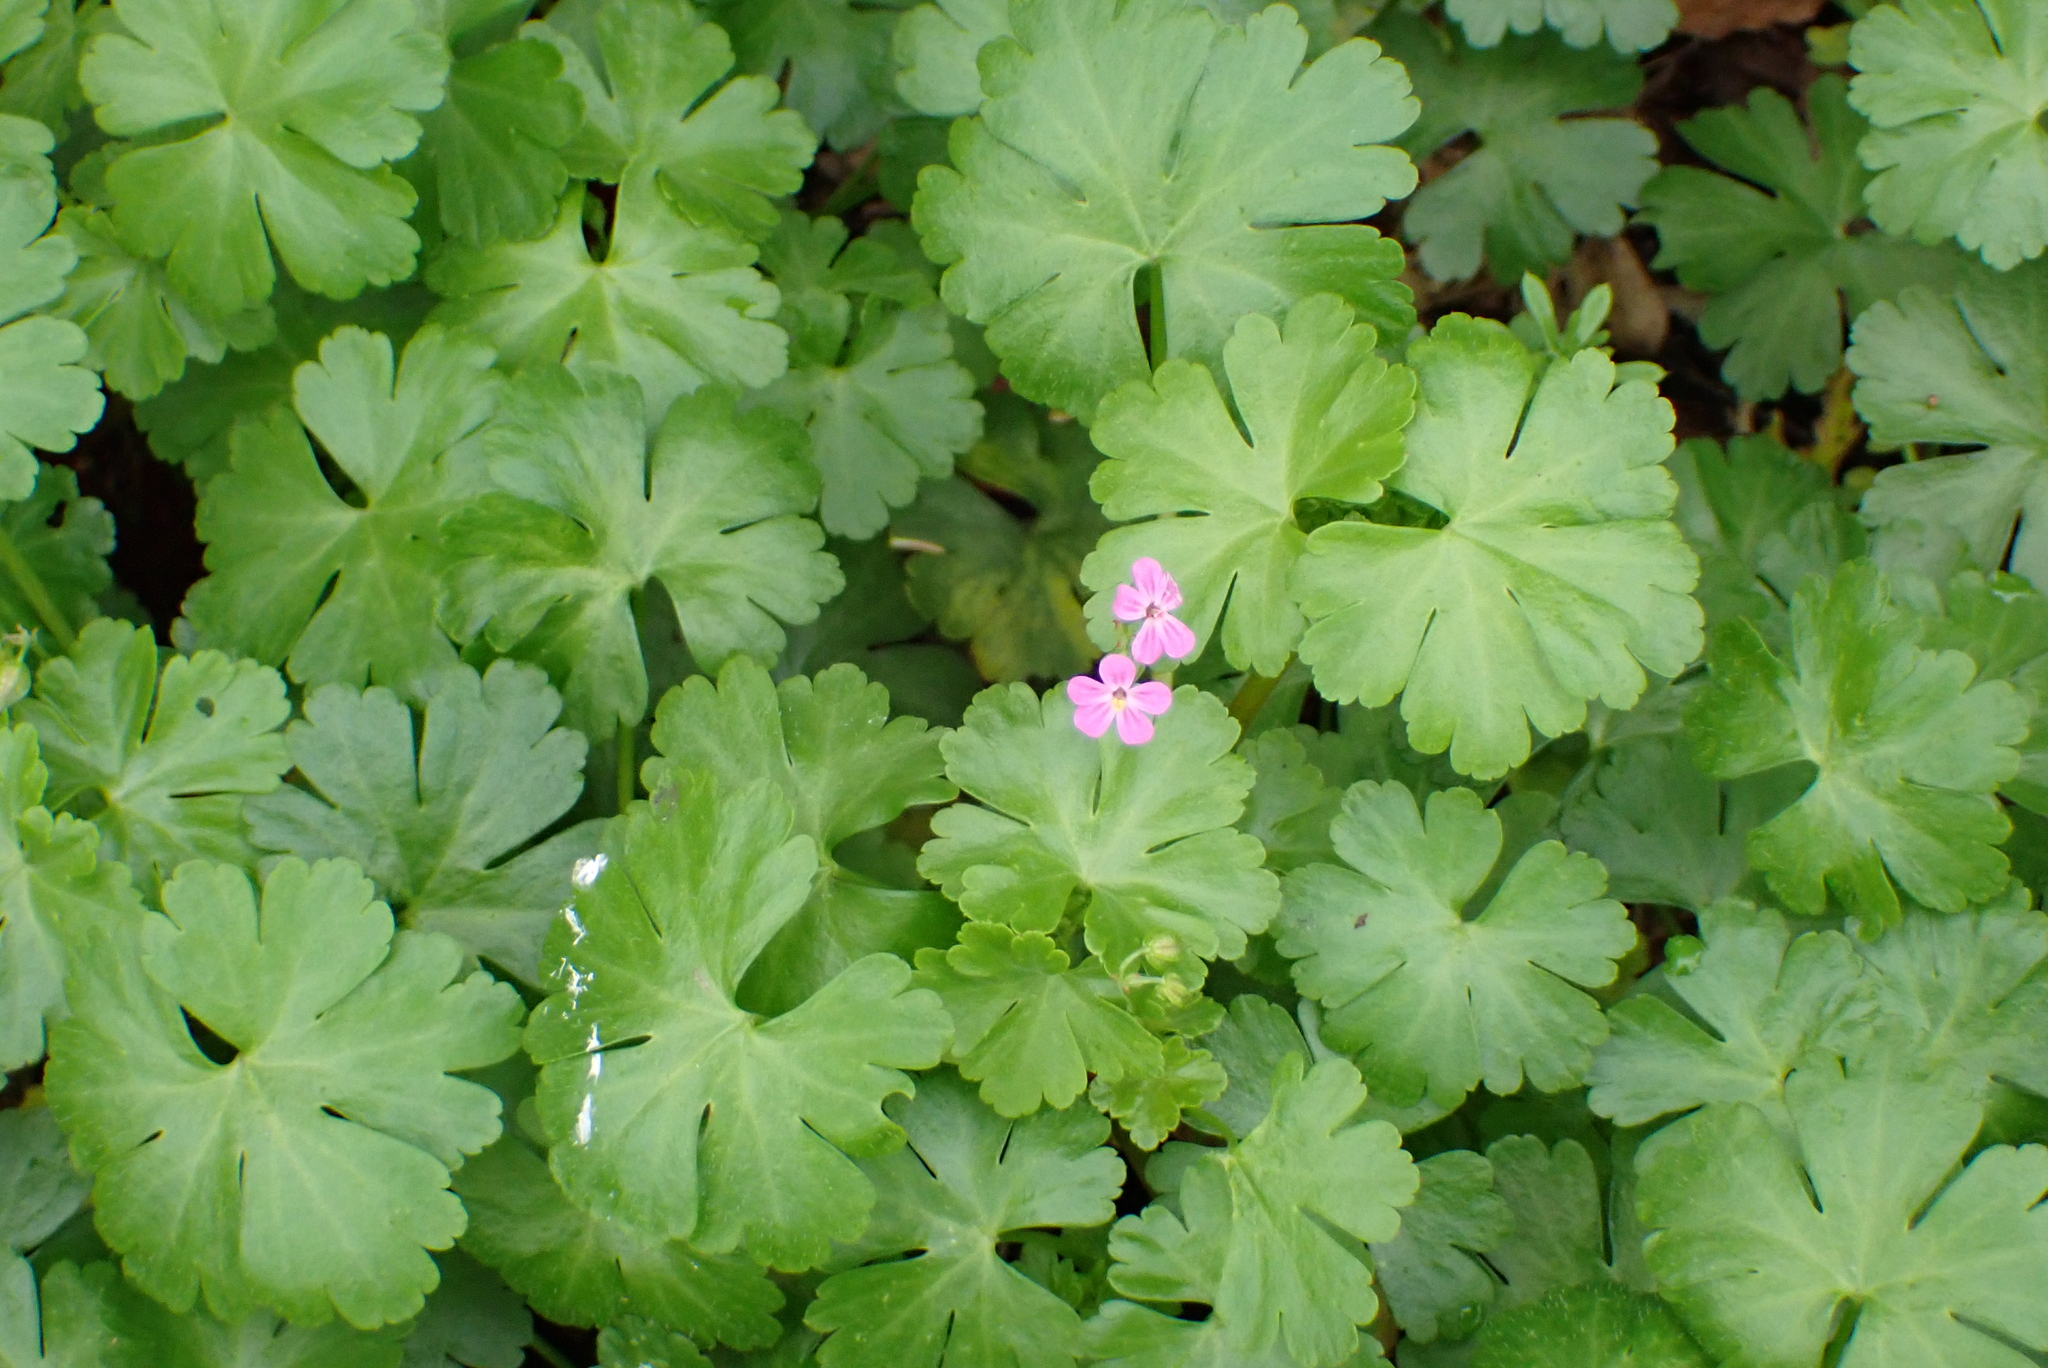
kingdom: Plantae
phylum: Tracheophyta
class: Magnoliopsida
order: Geraniales
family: Geraniaceae
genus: Geranium
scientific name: Geranium lucidum
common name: Shining crane's-bill
